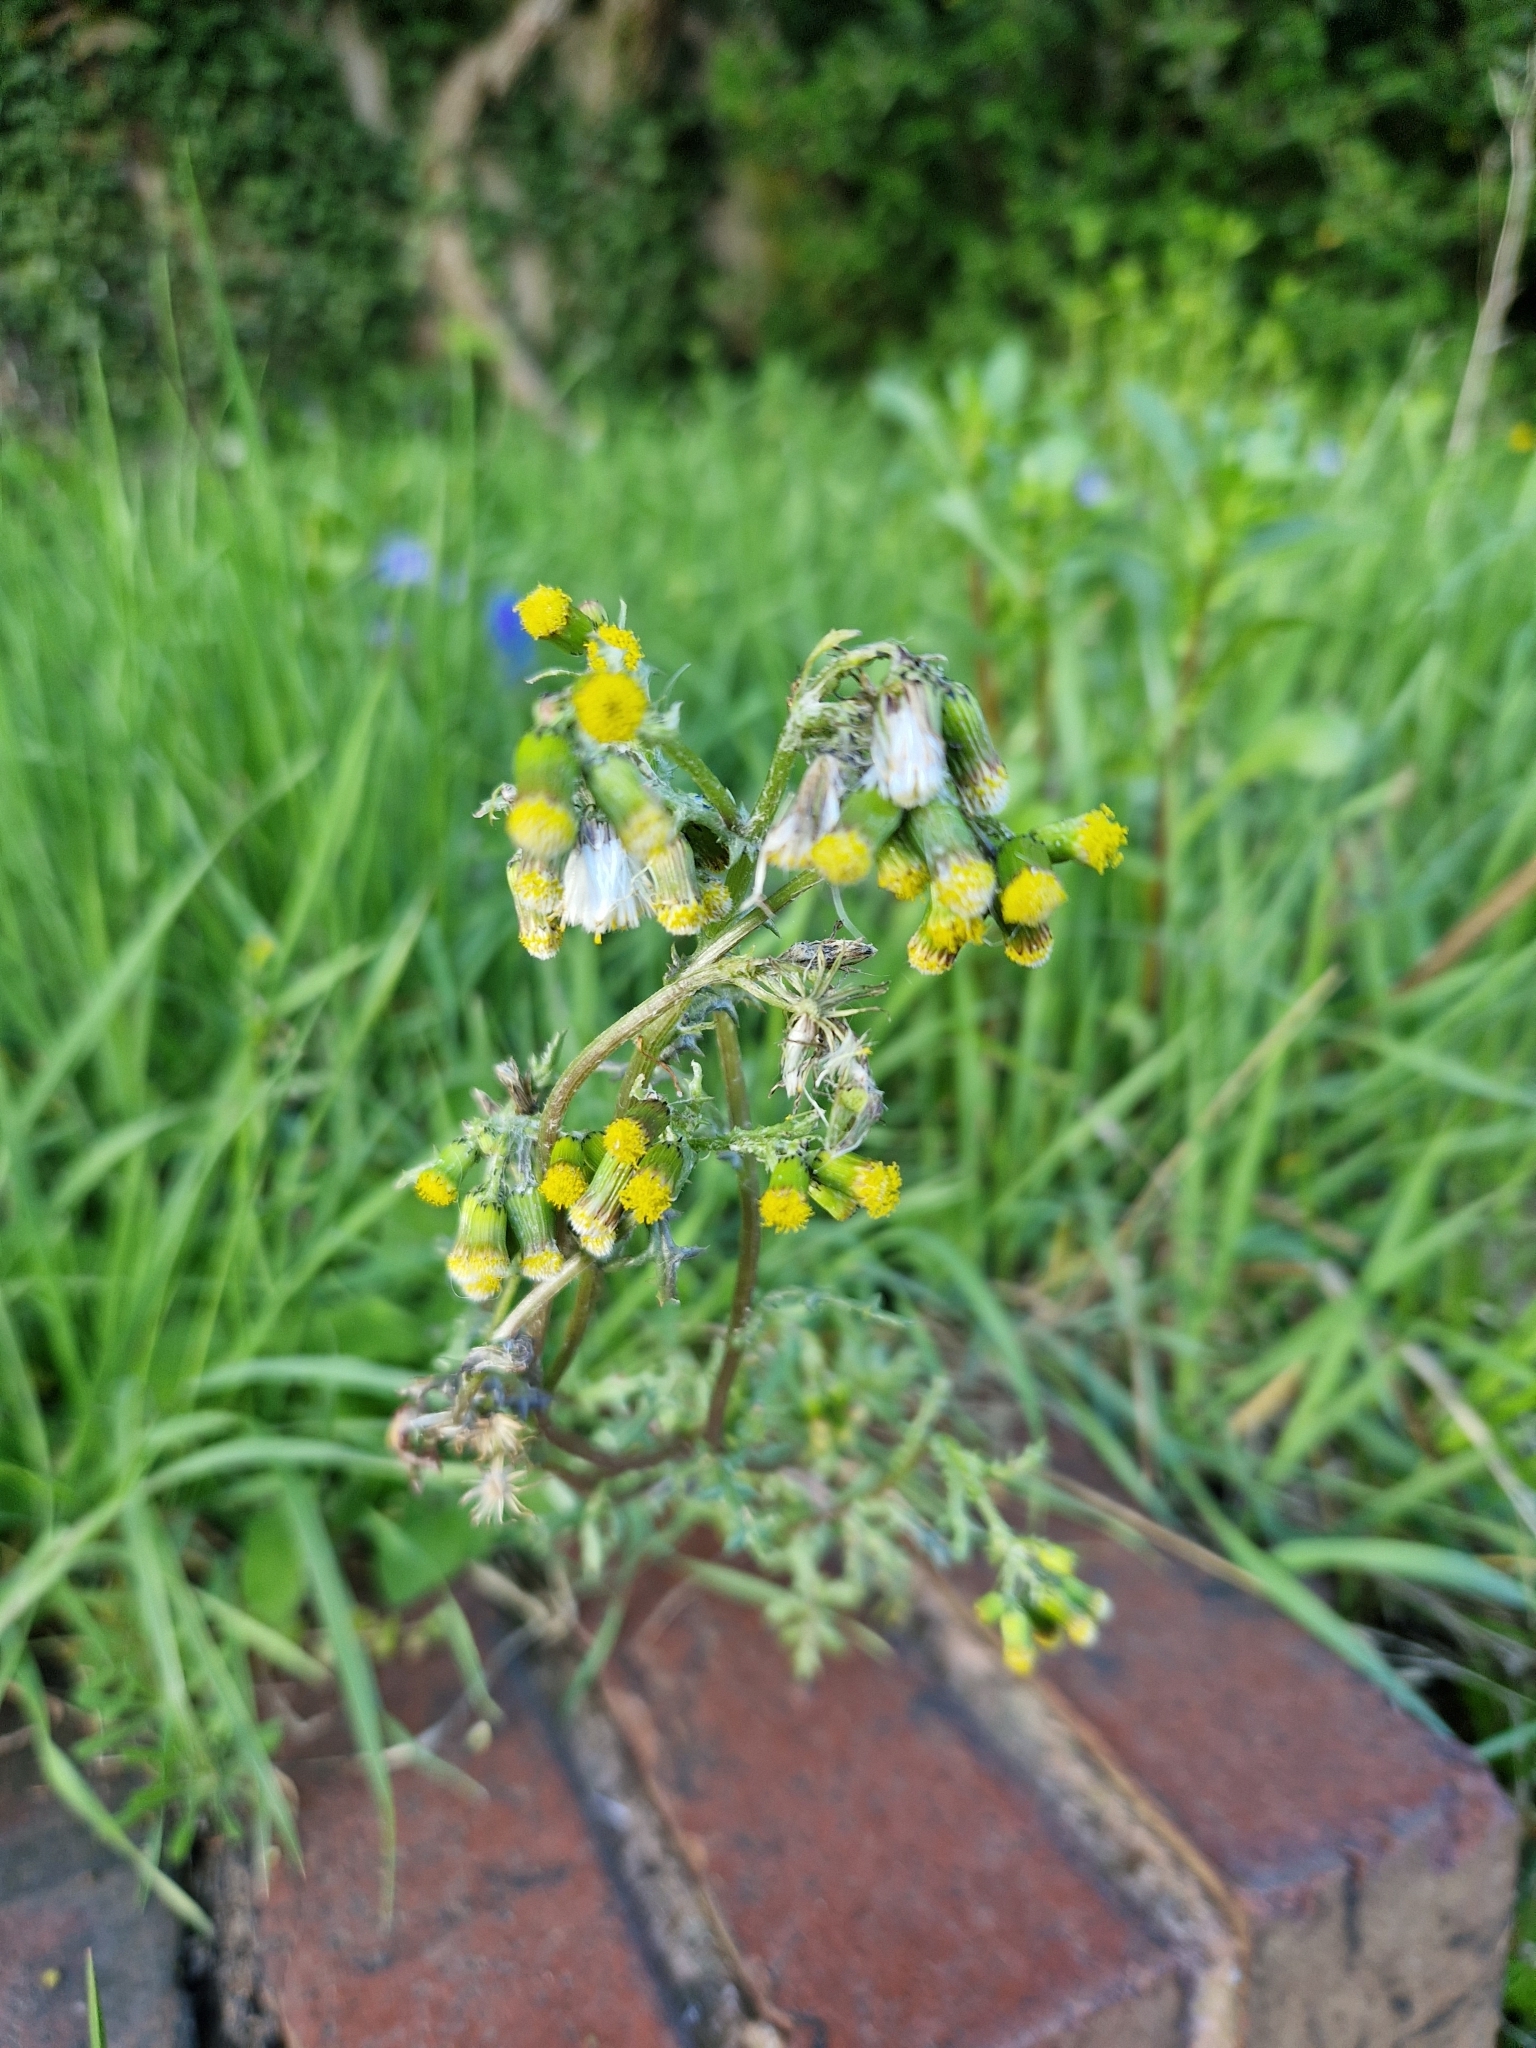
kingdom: Plantae
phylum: Tracheophyta
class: Magnoliopsida
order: Asterales
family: Asteraceae
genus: Senecio
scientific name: Senecio vulgaris
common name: Old-man-in-the-spring
